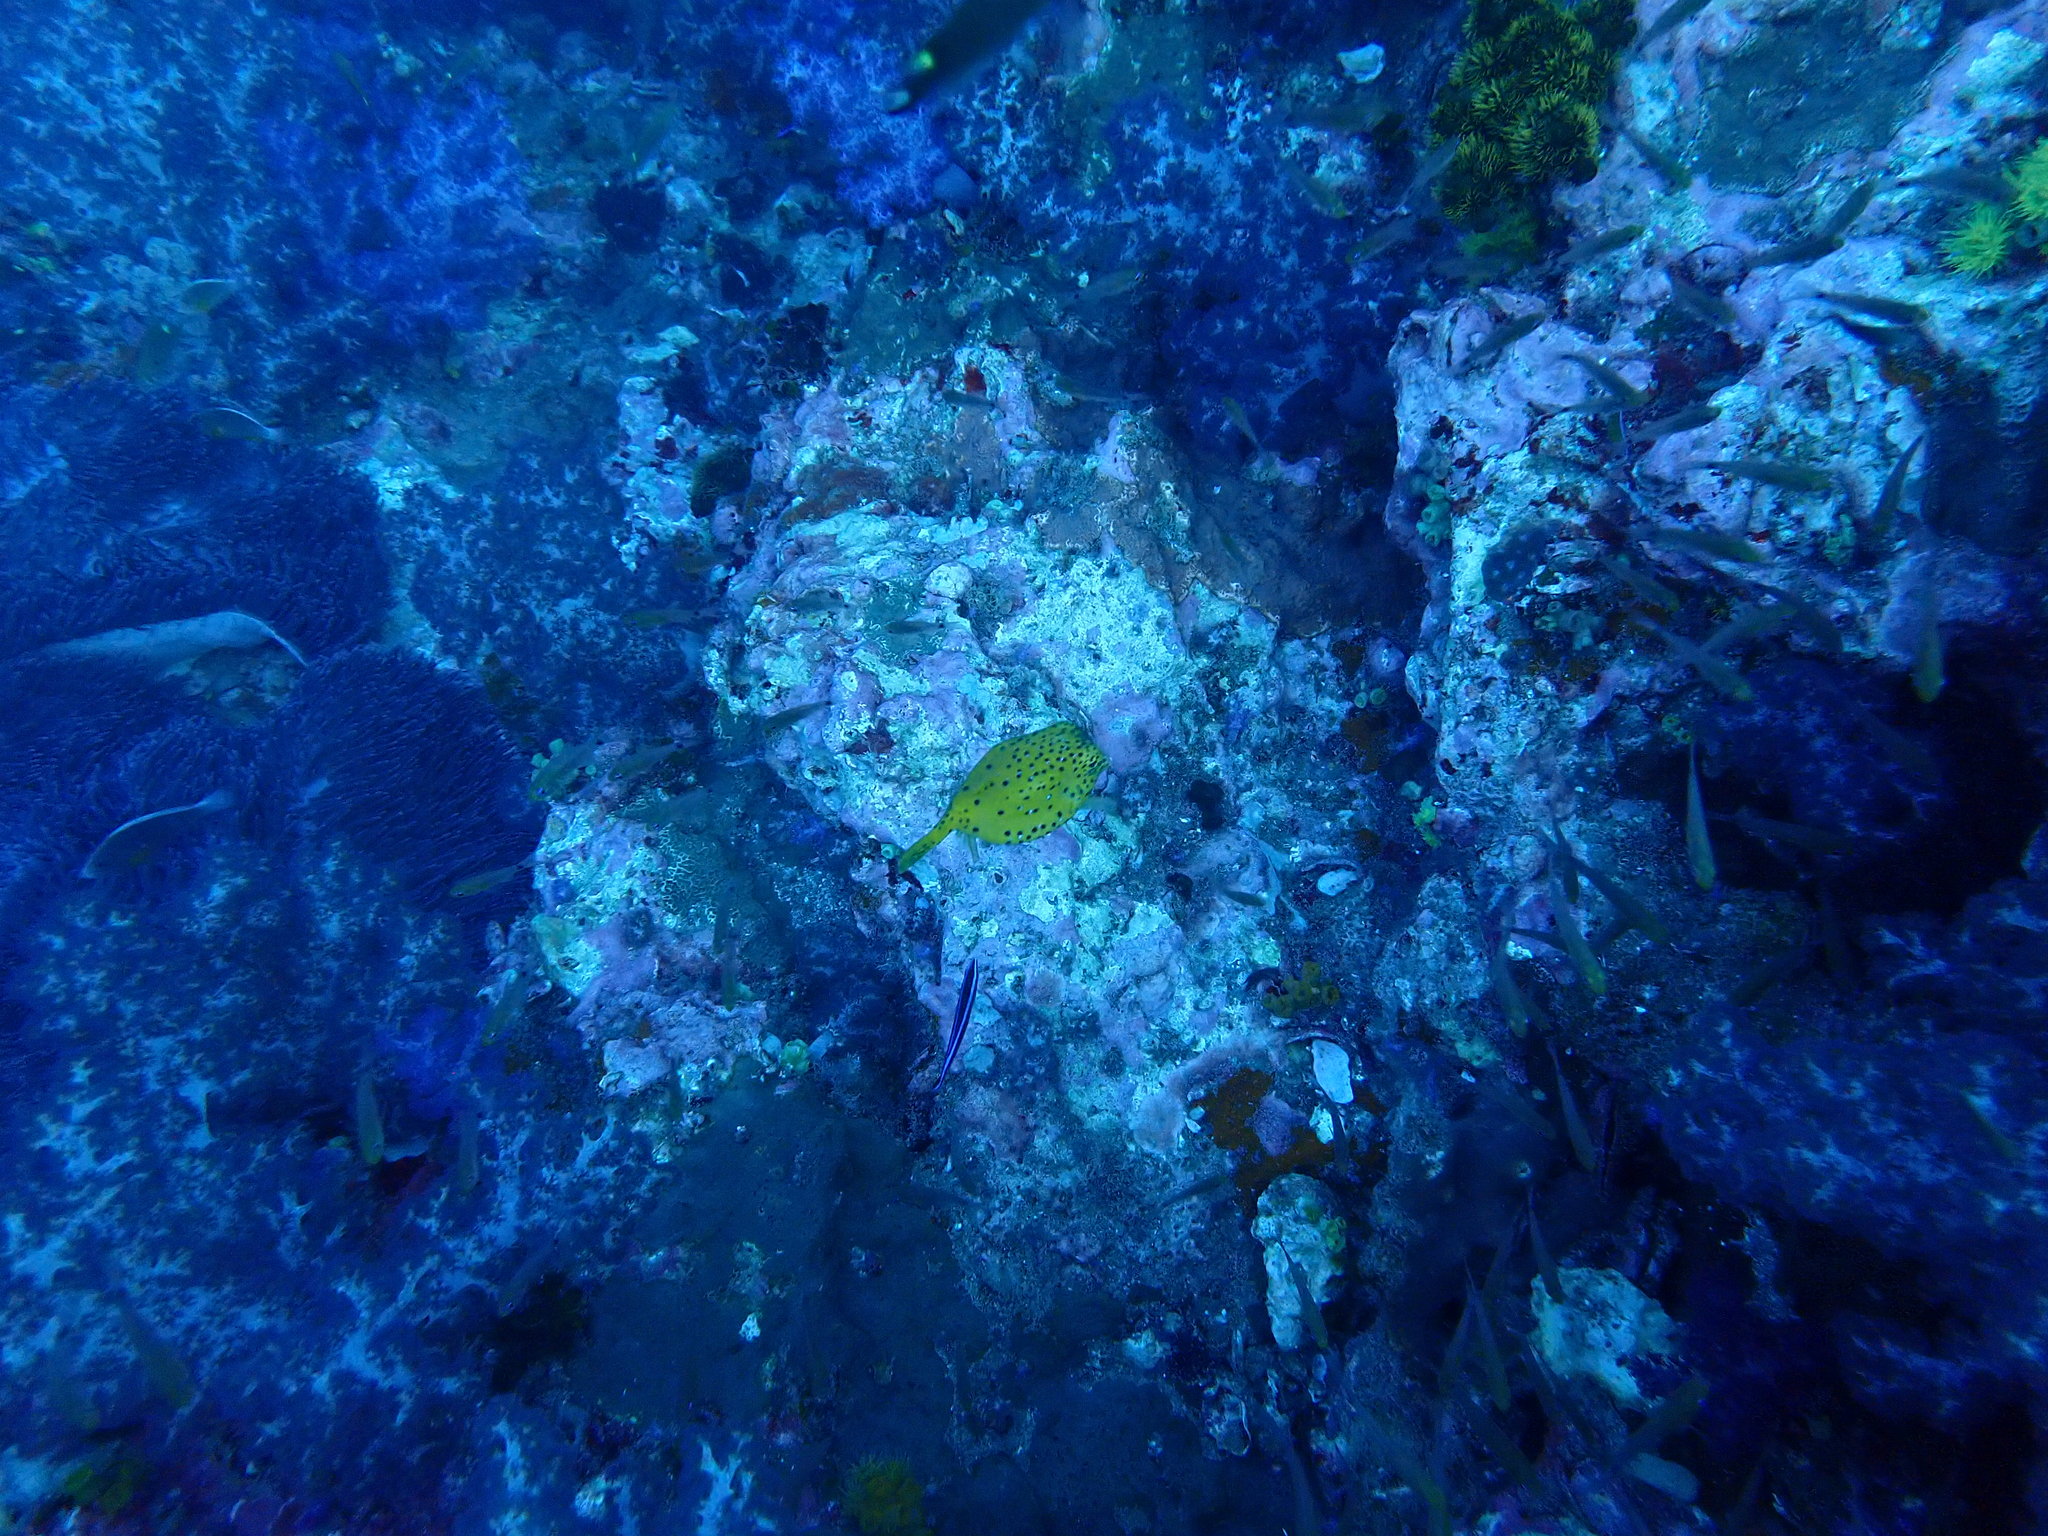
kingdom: Animalia
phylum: Chordata
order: Tetraodontiformes
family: Ostraciidae
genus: Ostracion
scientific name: Ostracion cubicus
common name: Cube trunkfish
